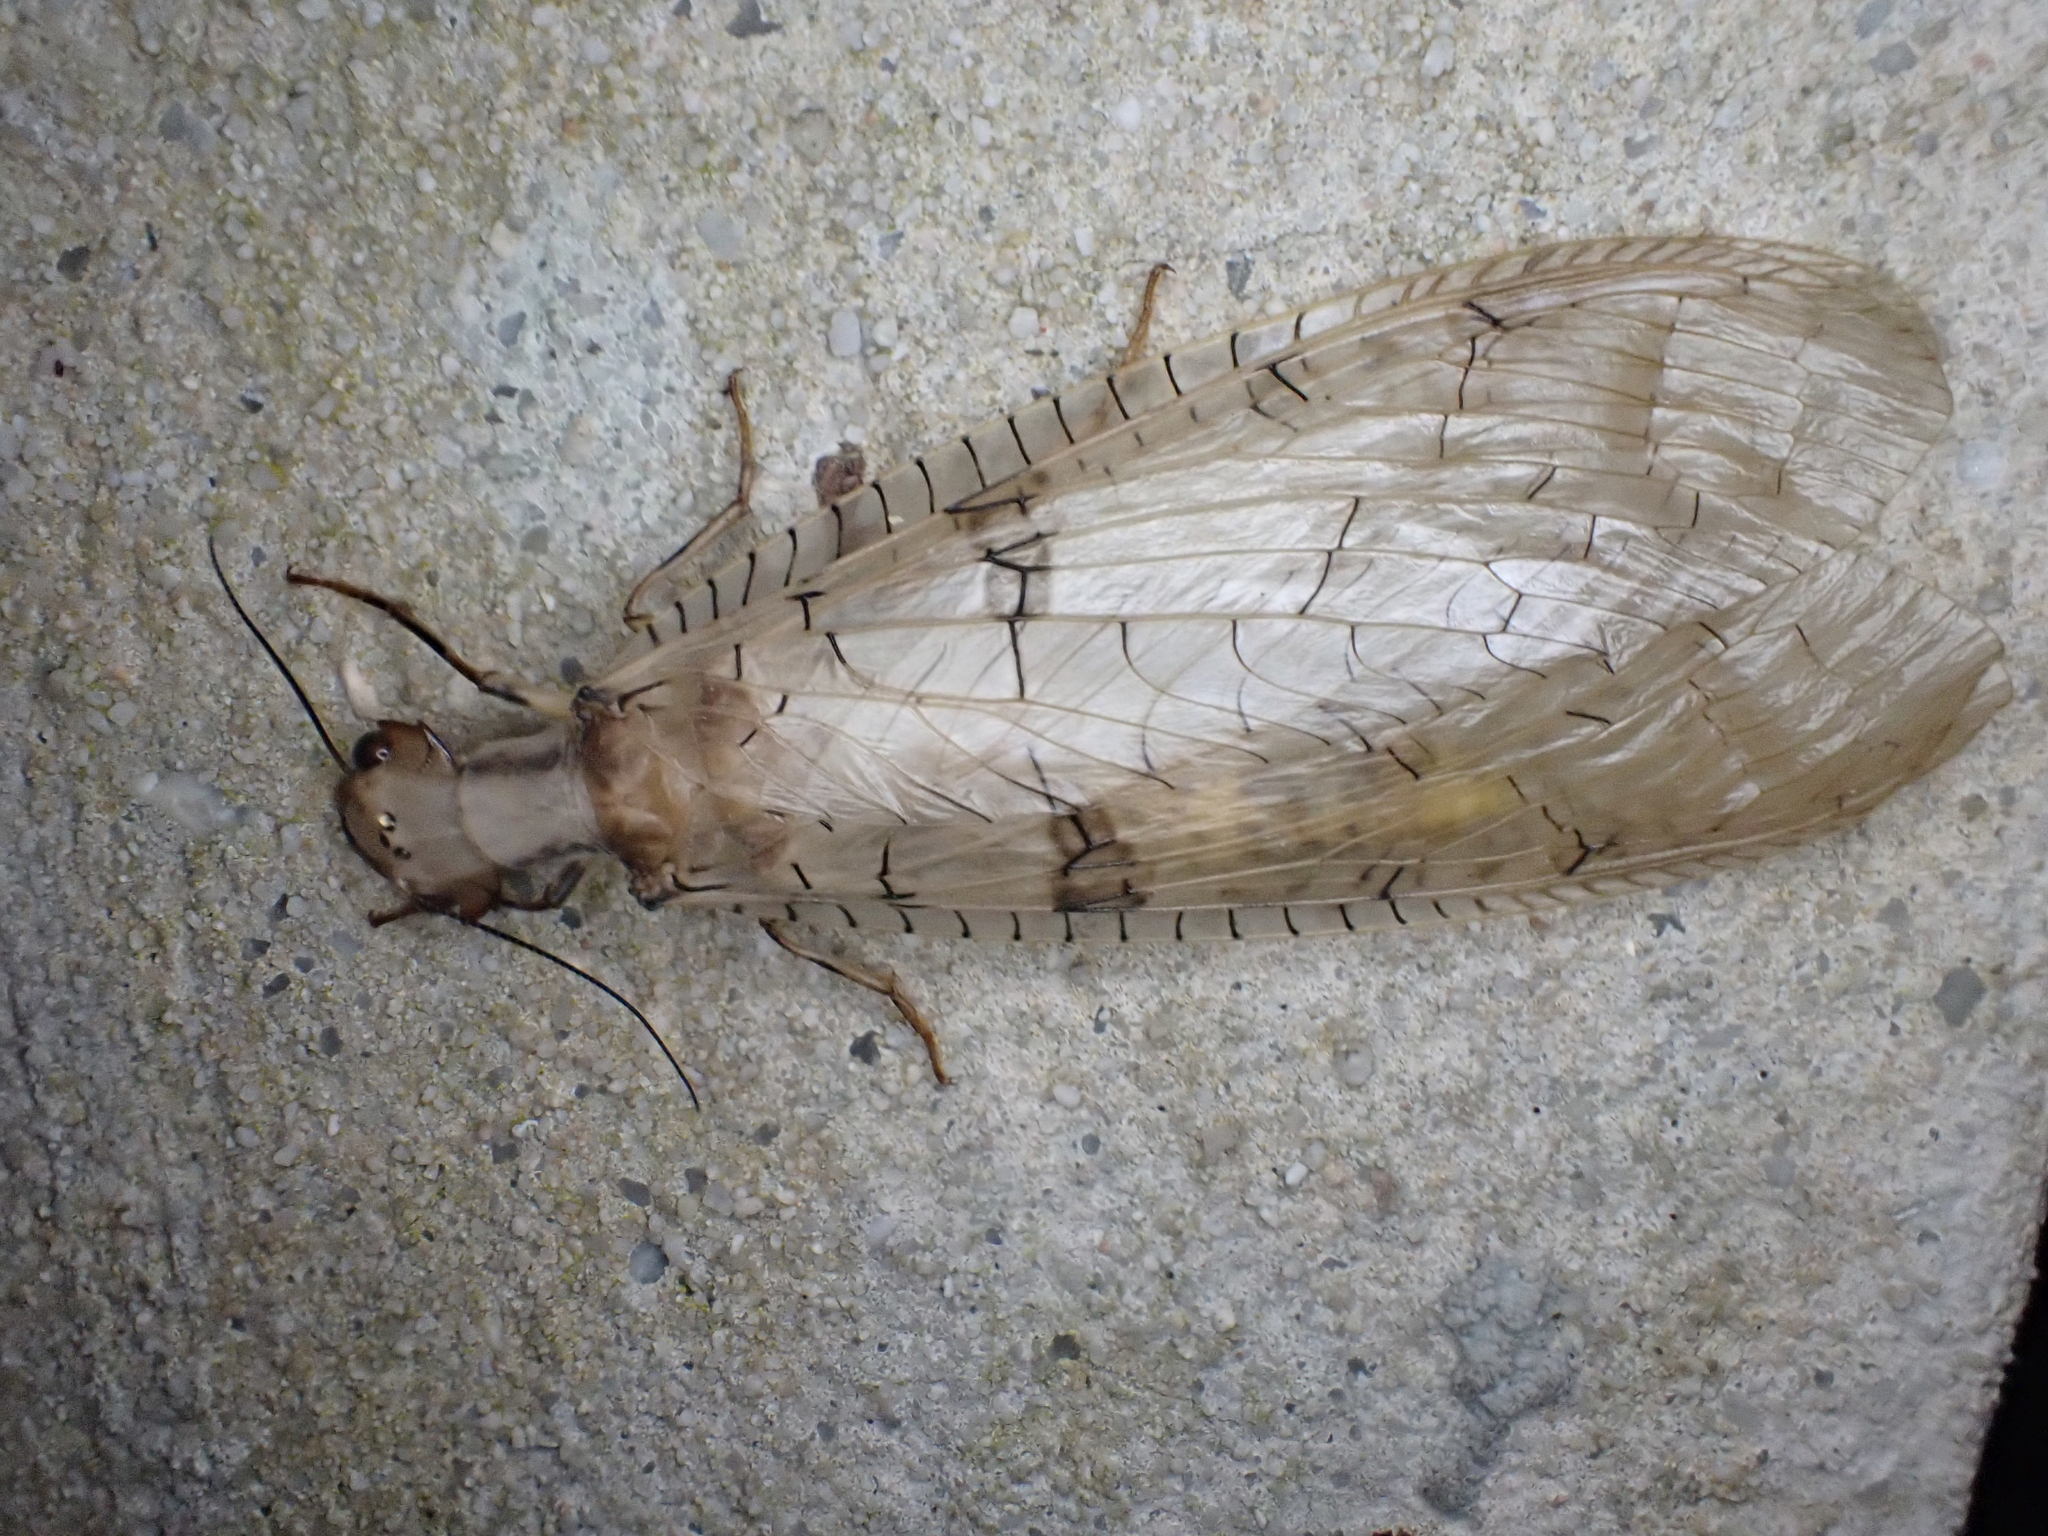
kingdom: Animalia
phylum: Arthropoda
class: Insecta
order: Megaloptera
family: Corydalidae
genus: Platyneuromus
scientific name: Platyneuromus honduranus
